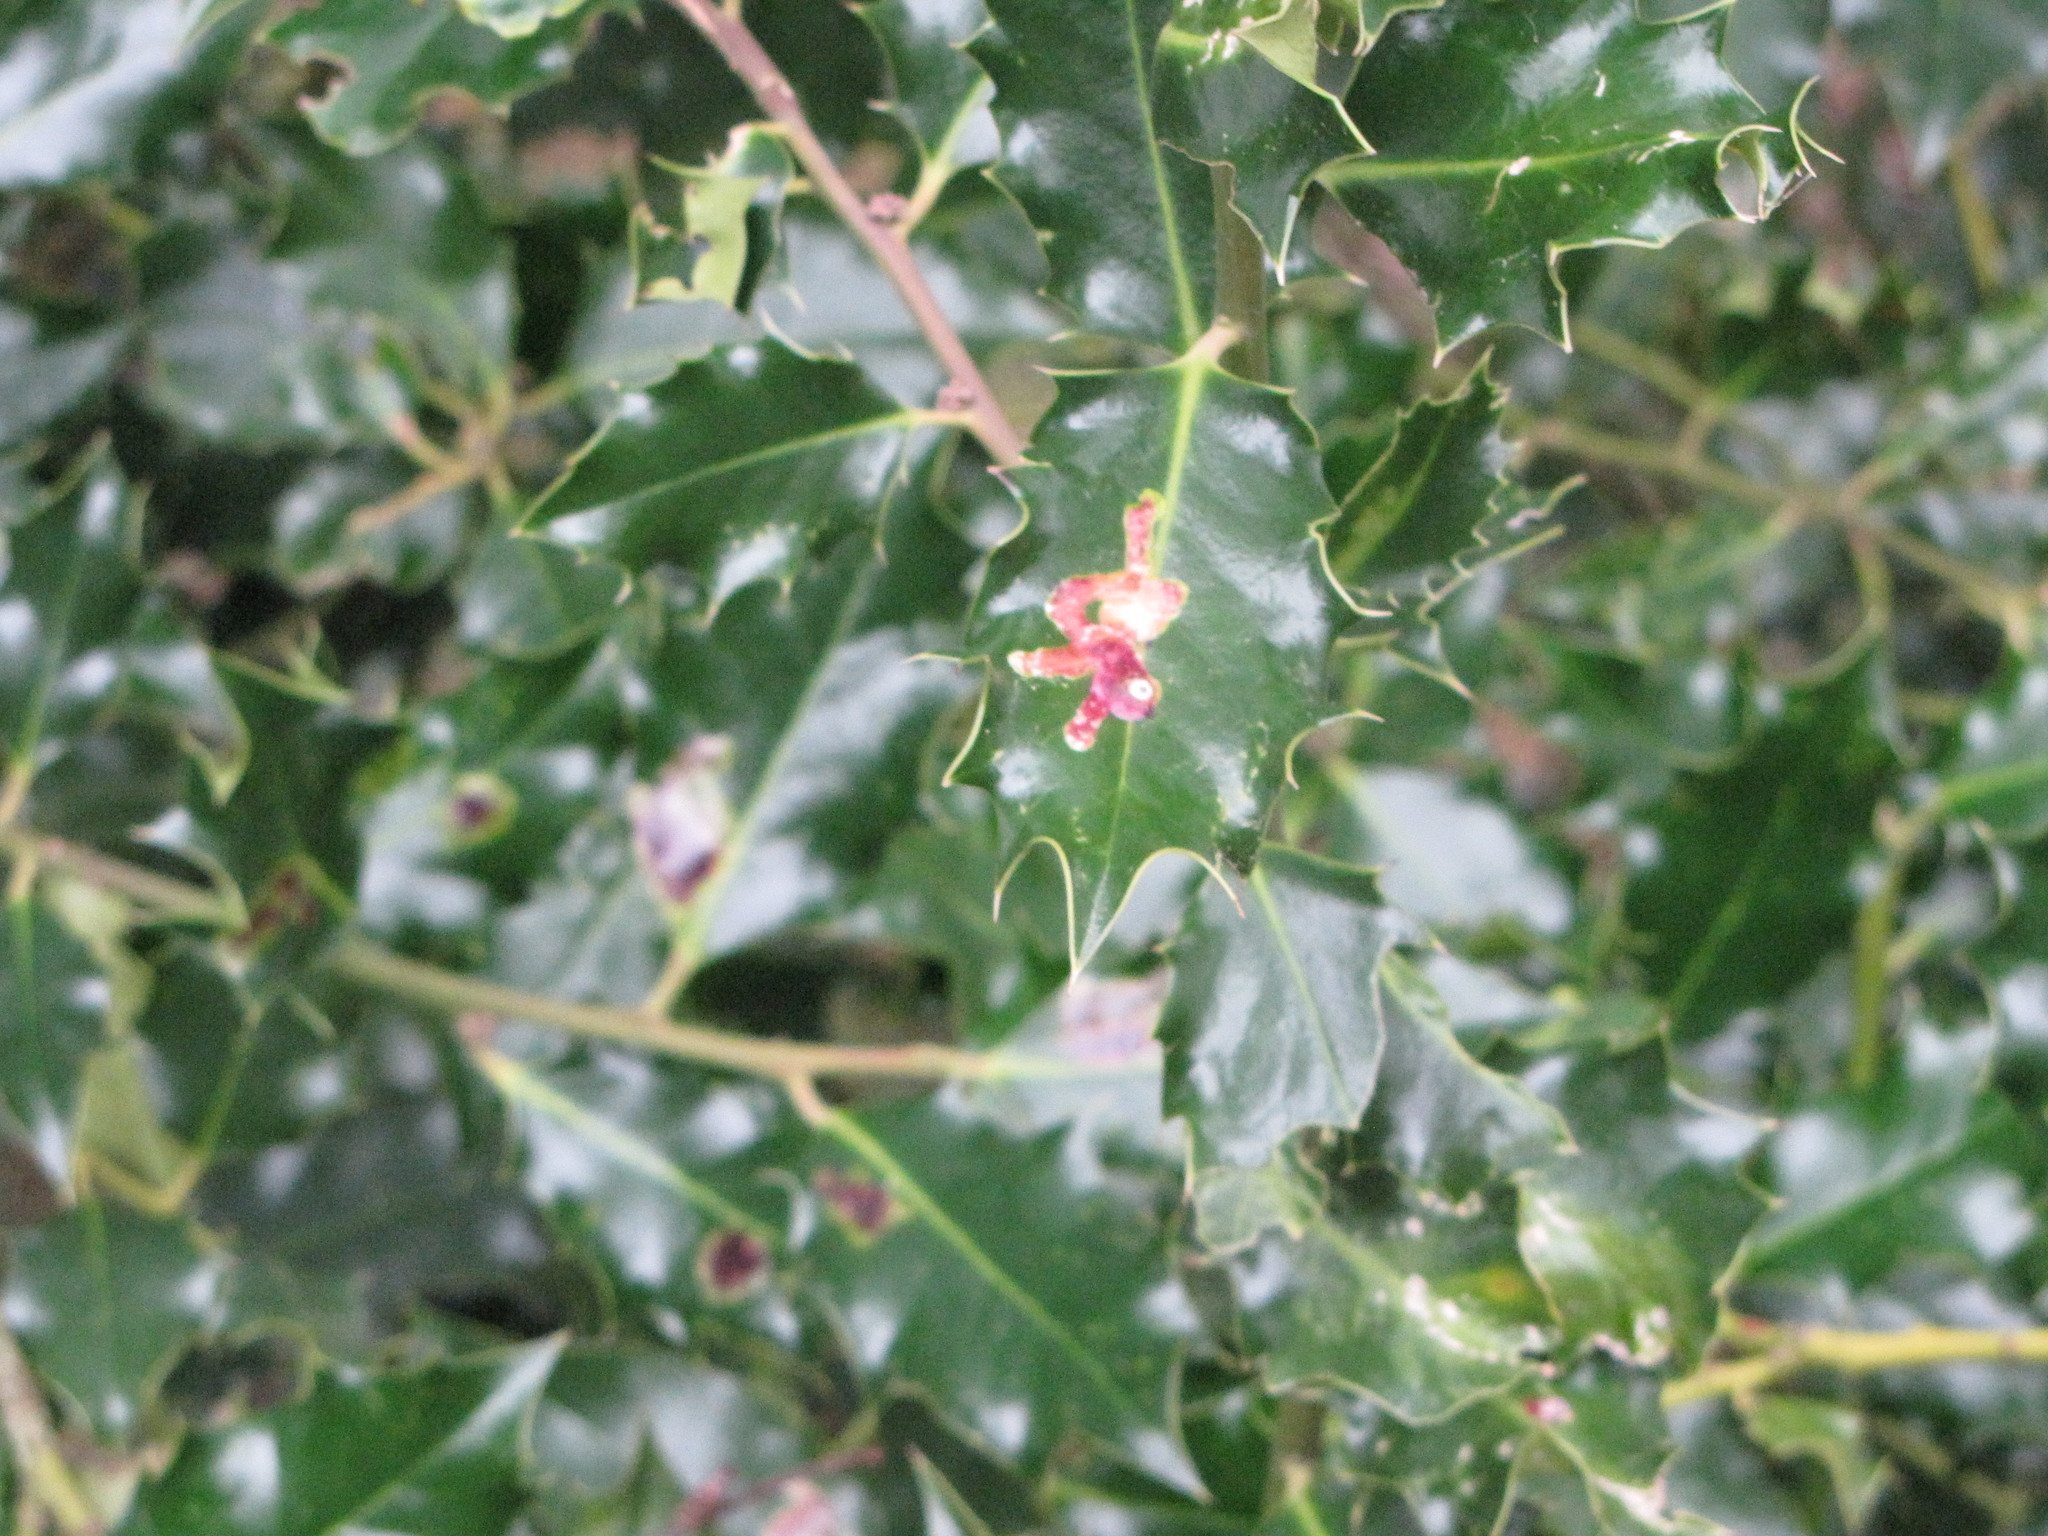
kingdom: Plantae
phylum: Tracheophyta
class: Magnoliopsida
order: Aquifoliales
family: Aquifoliaceae
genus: Ilex
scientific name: Ilex aquifolium
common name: English holly
